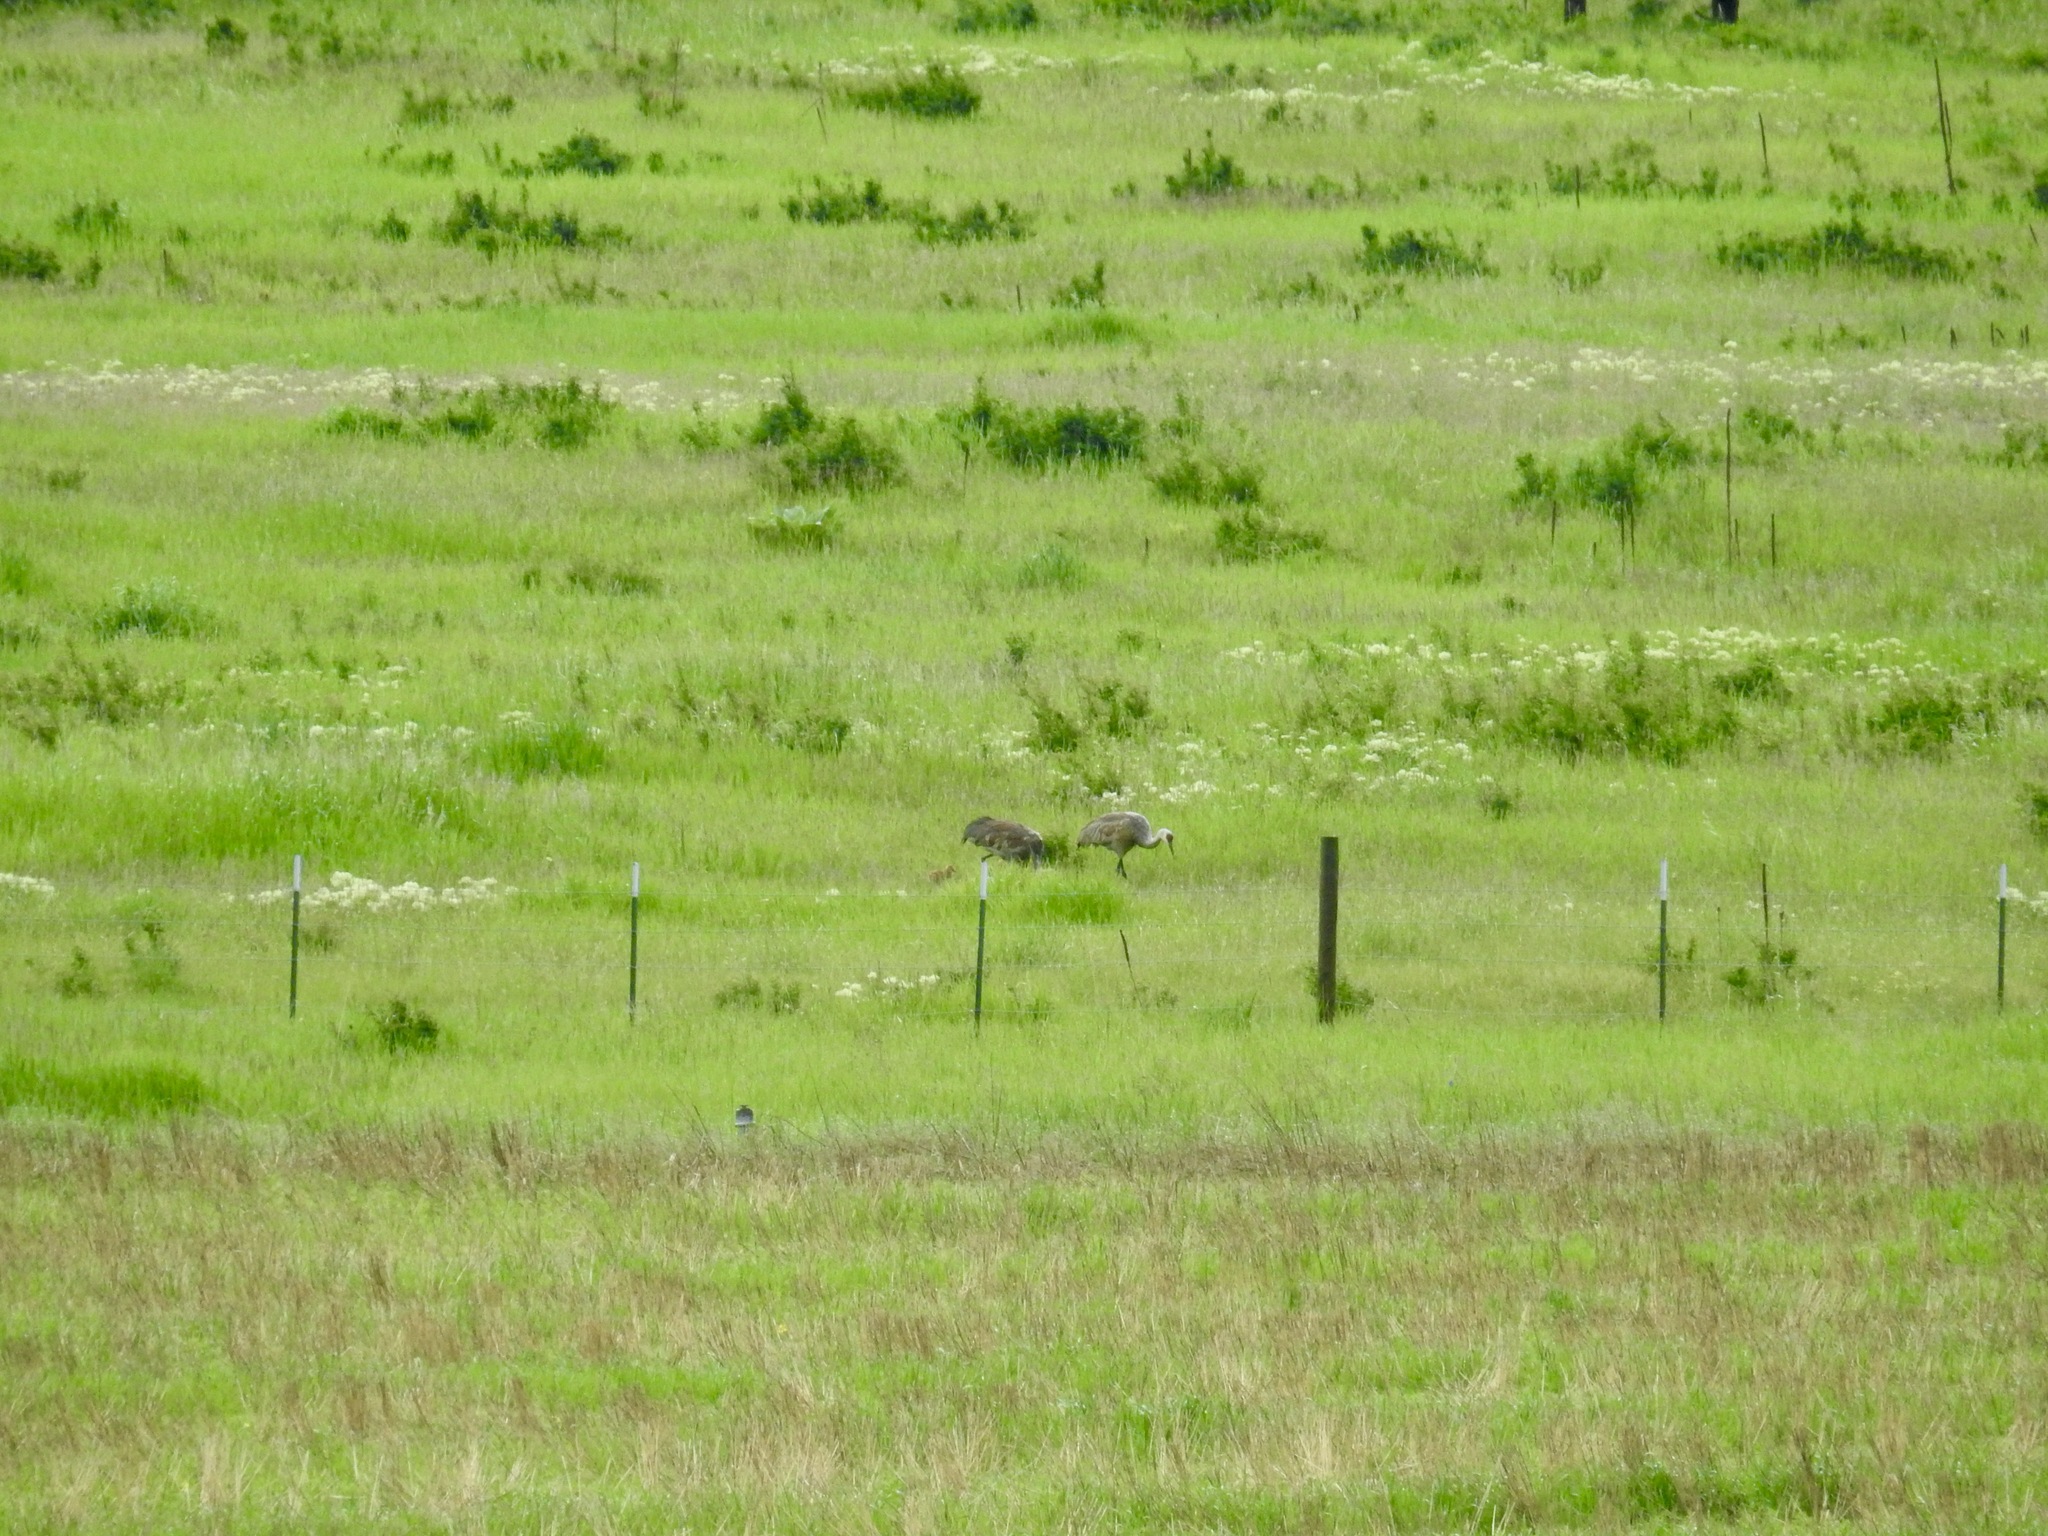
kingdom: Animalia
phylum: Chordata
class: Aves
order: Gruiformes
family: Gruidae
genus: Grus
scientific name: Grus canadensis
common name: Sandhill crane
